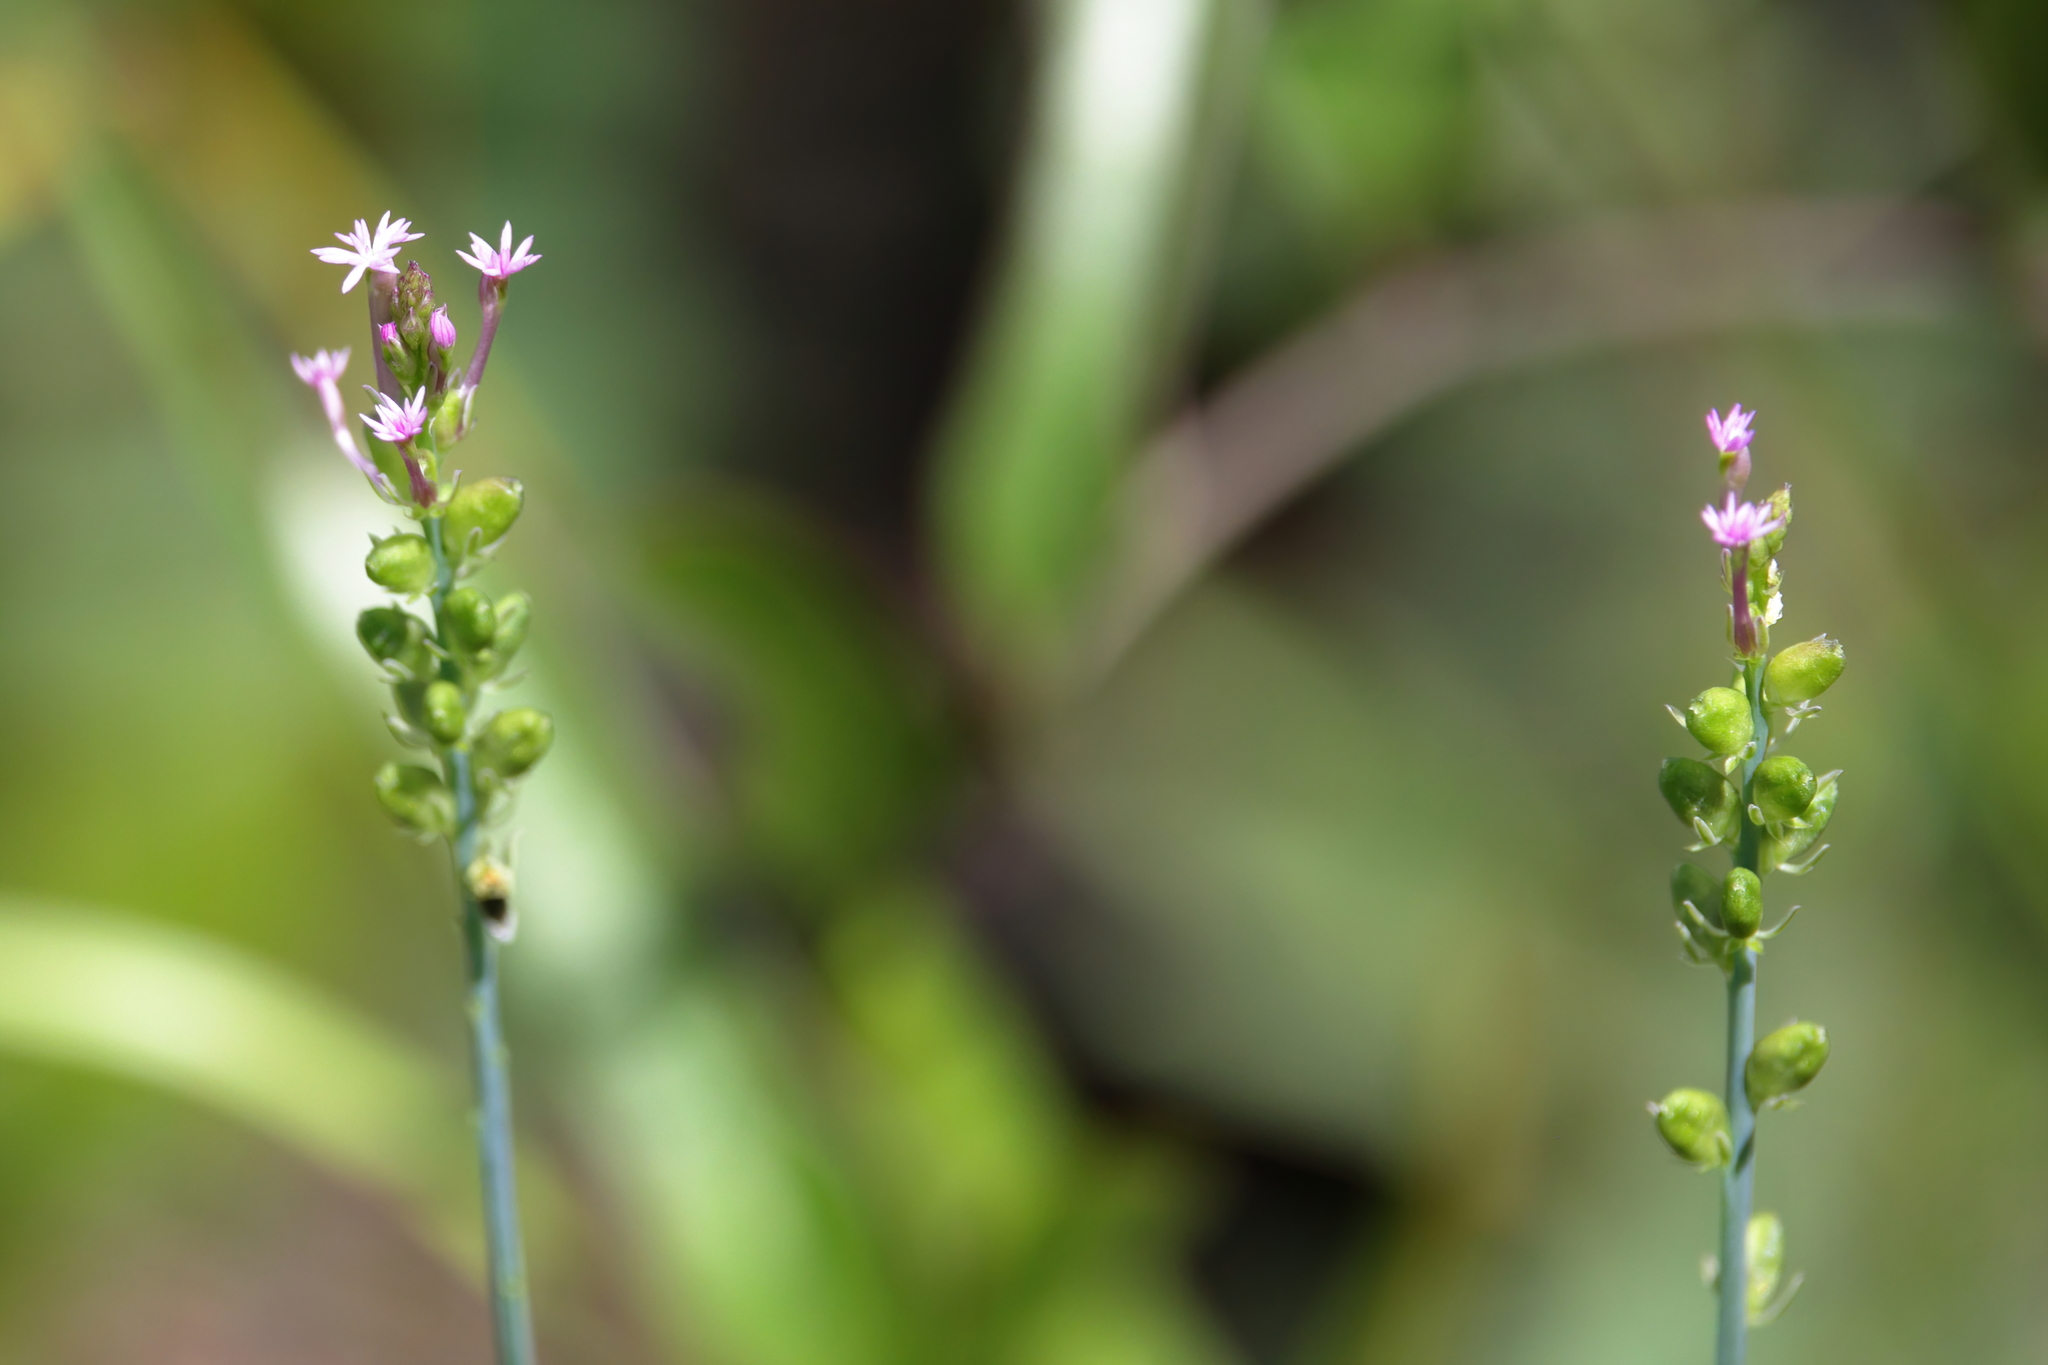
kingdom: Plantae
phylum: Tracheophyta
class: Magnoliopsida
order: Fabales
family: Polygalaceae
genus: Polygala
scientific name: Polygala incarnata
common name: Pink milkwort
